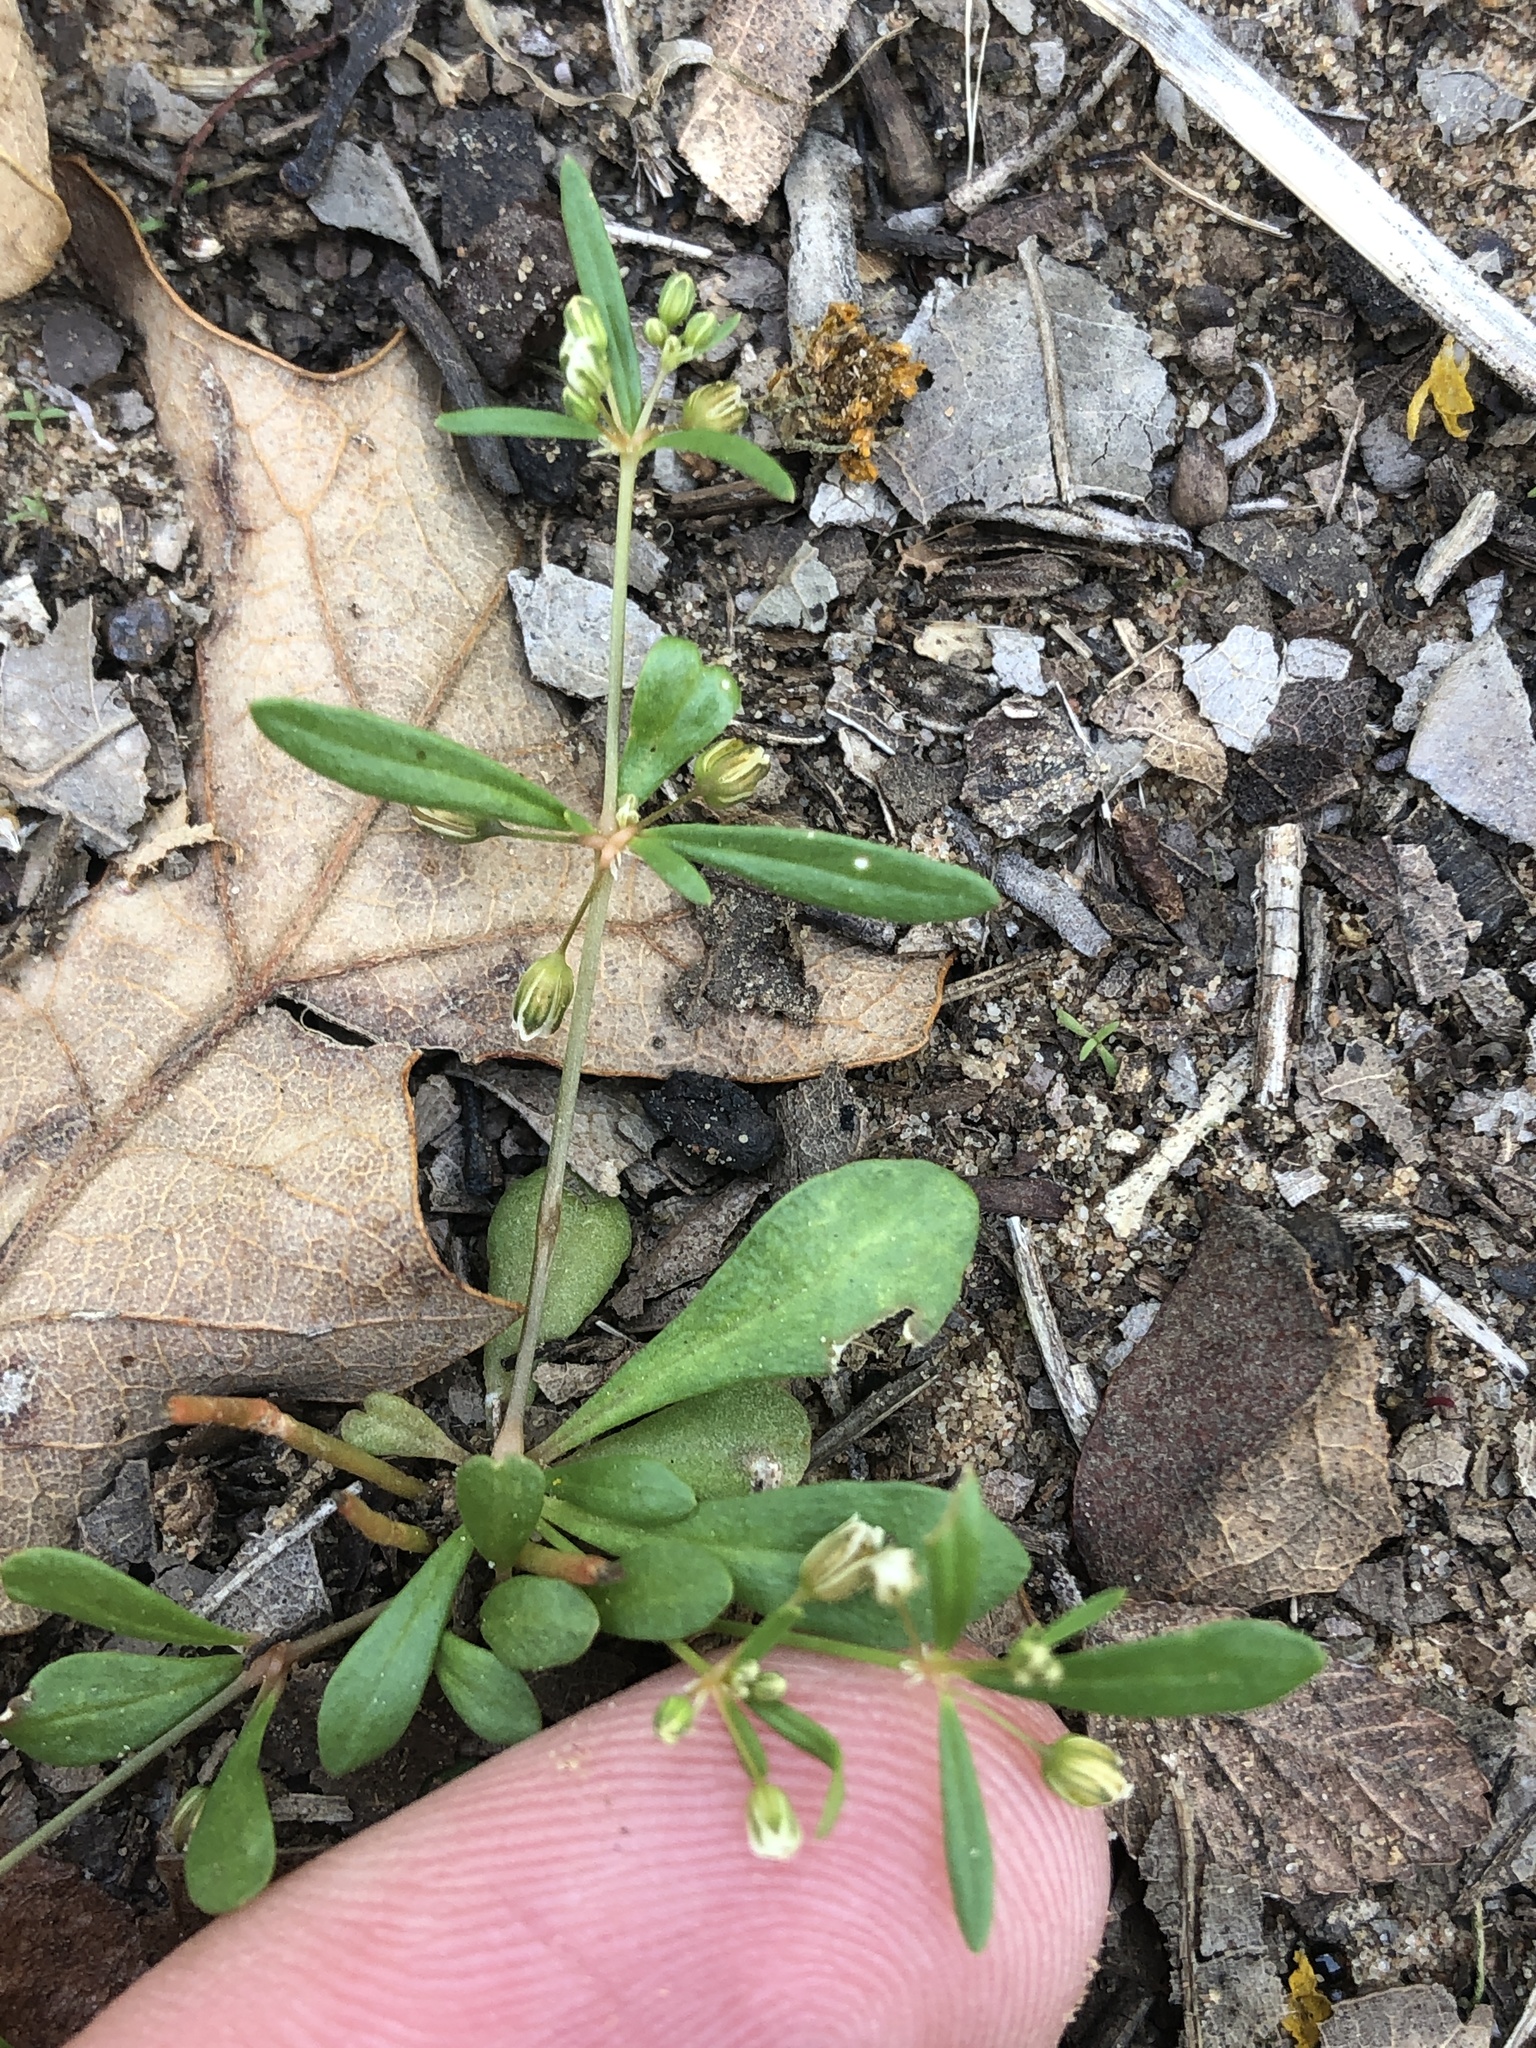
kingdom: Plantae
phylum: Tracheophyta
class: Magnoliopsida
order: Caryophyllales
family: Molluginaceae
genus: Mollugo
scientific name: Mollugo verticillata
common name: Green carpetweed
